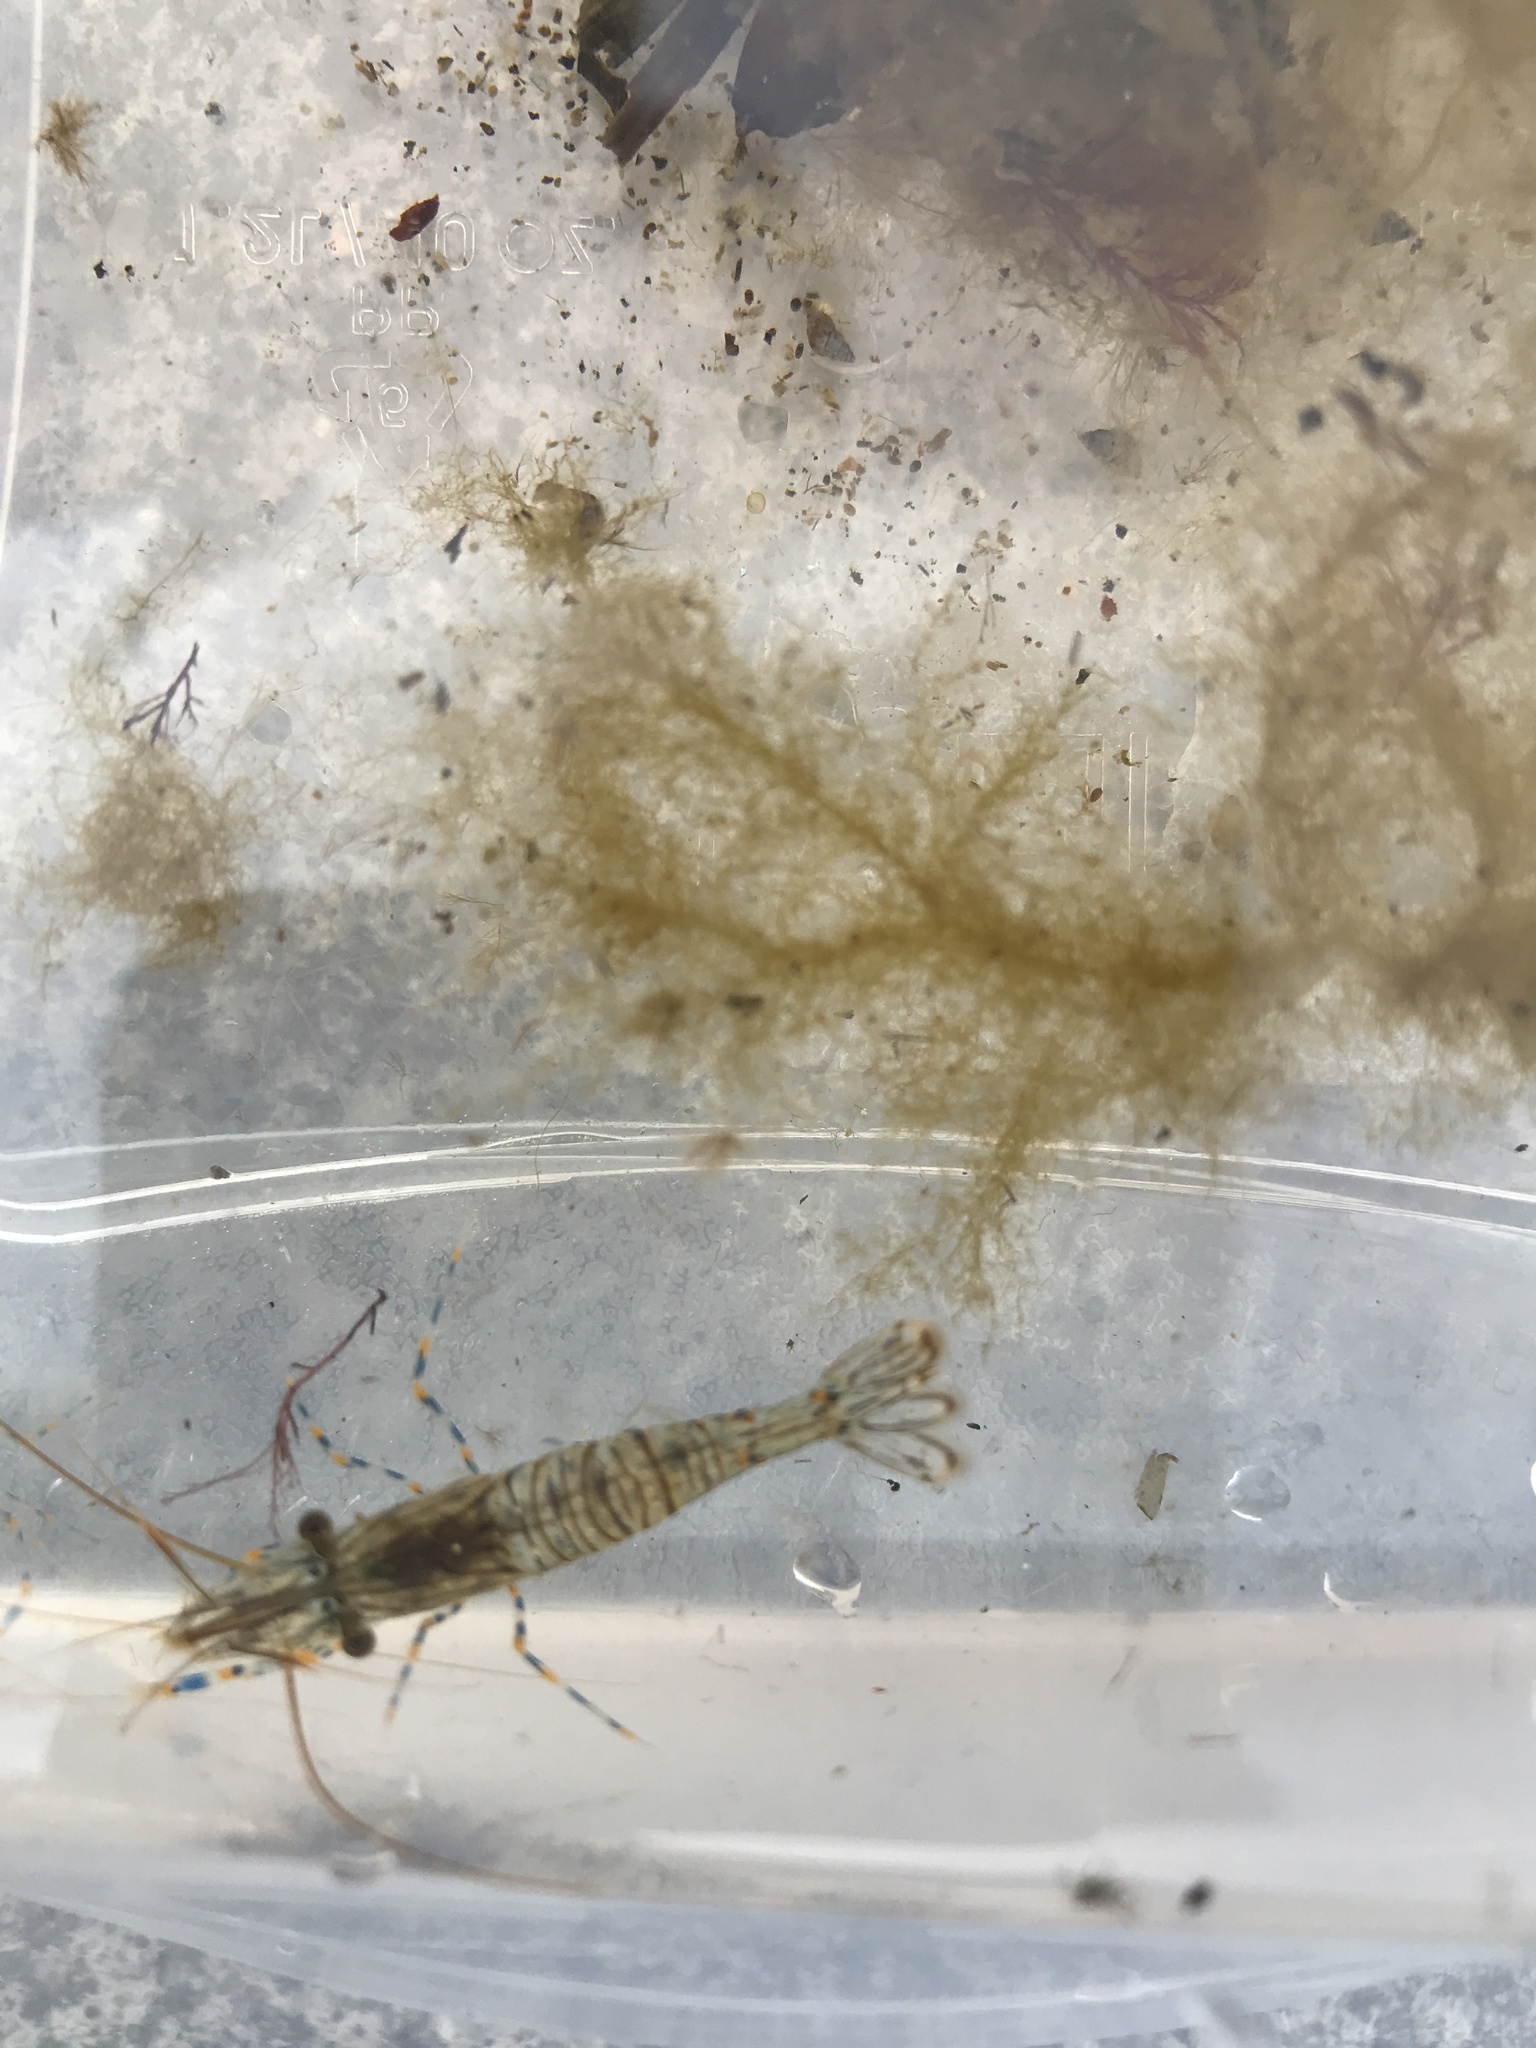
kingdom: Animalia
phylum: Arthropoda
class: Malacostraca
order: Decapoda
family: Palaemonidae
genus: Palaemon
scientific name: Palaemon elegans
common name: Grass prawm
